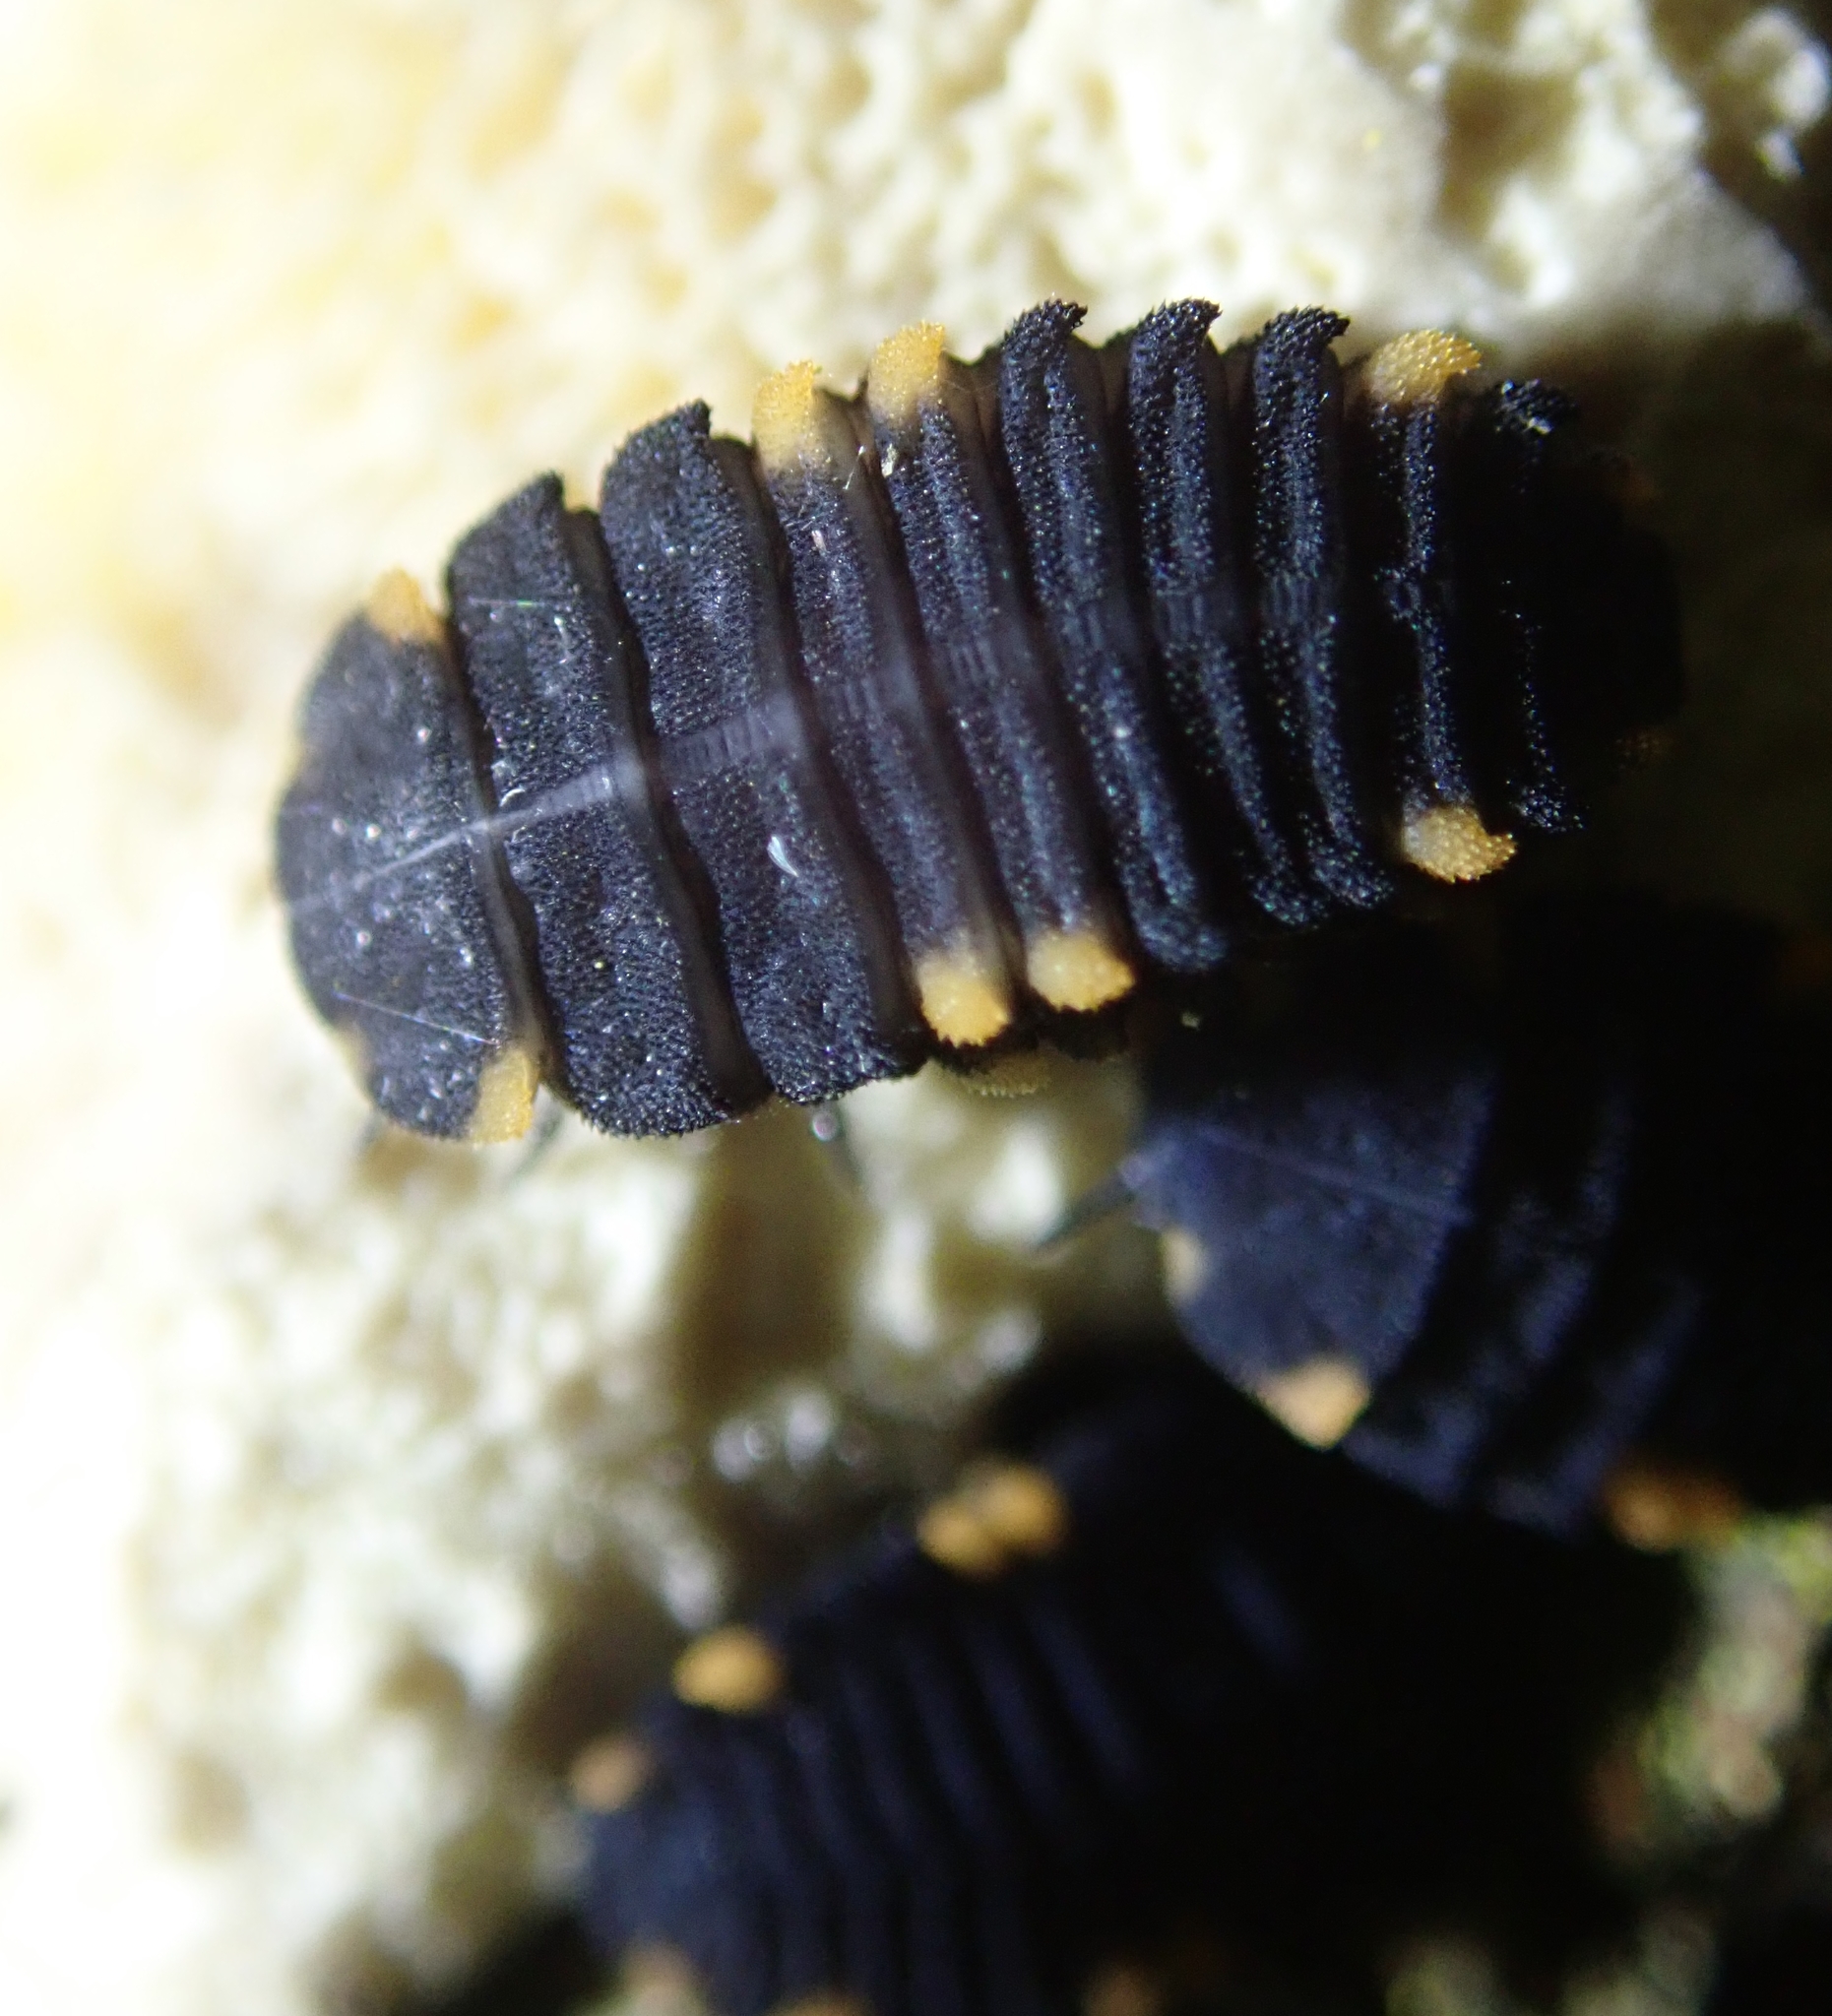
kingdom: Animalia
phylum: Arthropoda
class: Insecta
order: Coleoptera
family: Endomychidae
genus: Endomychus
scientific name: Endomychus coccineus
